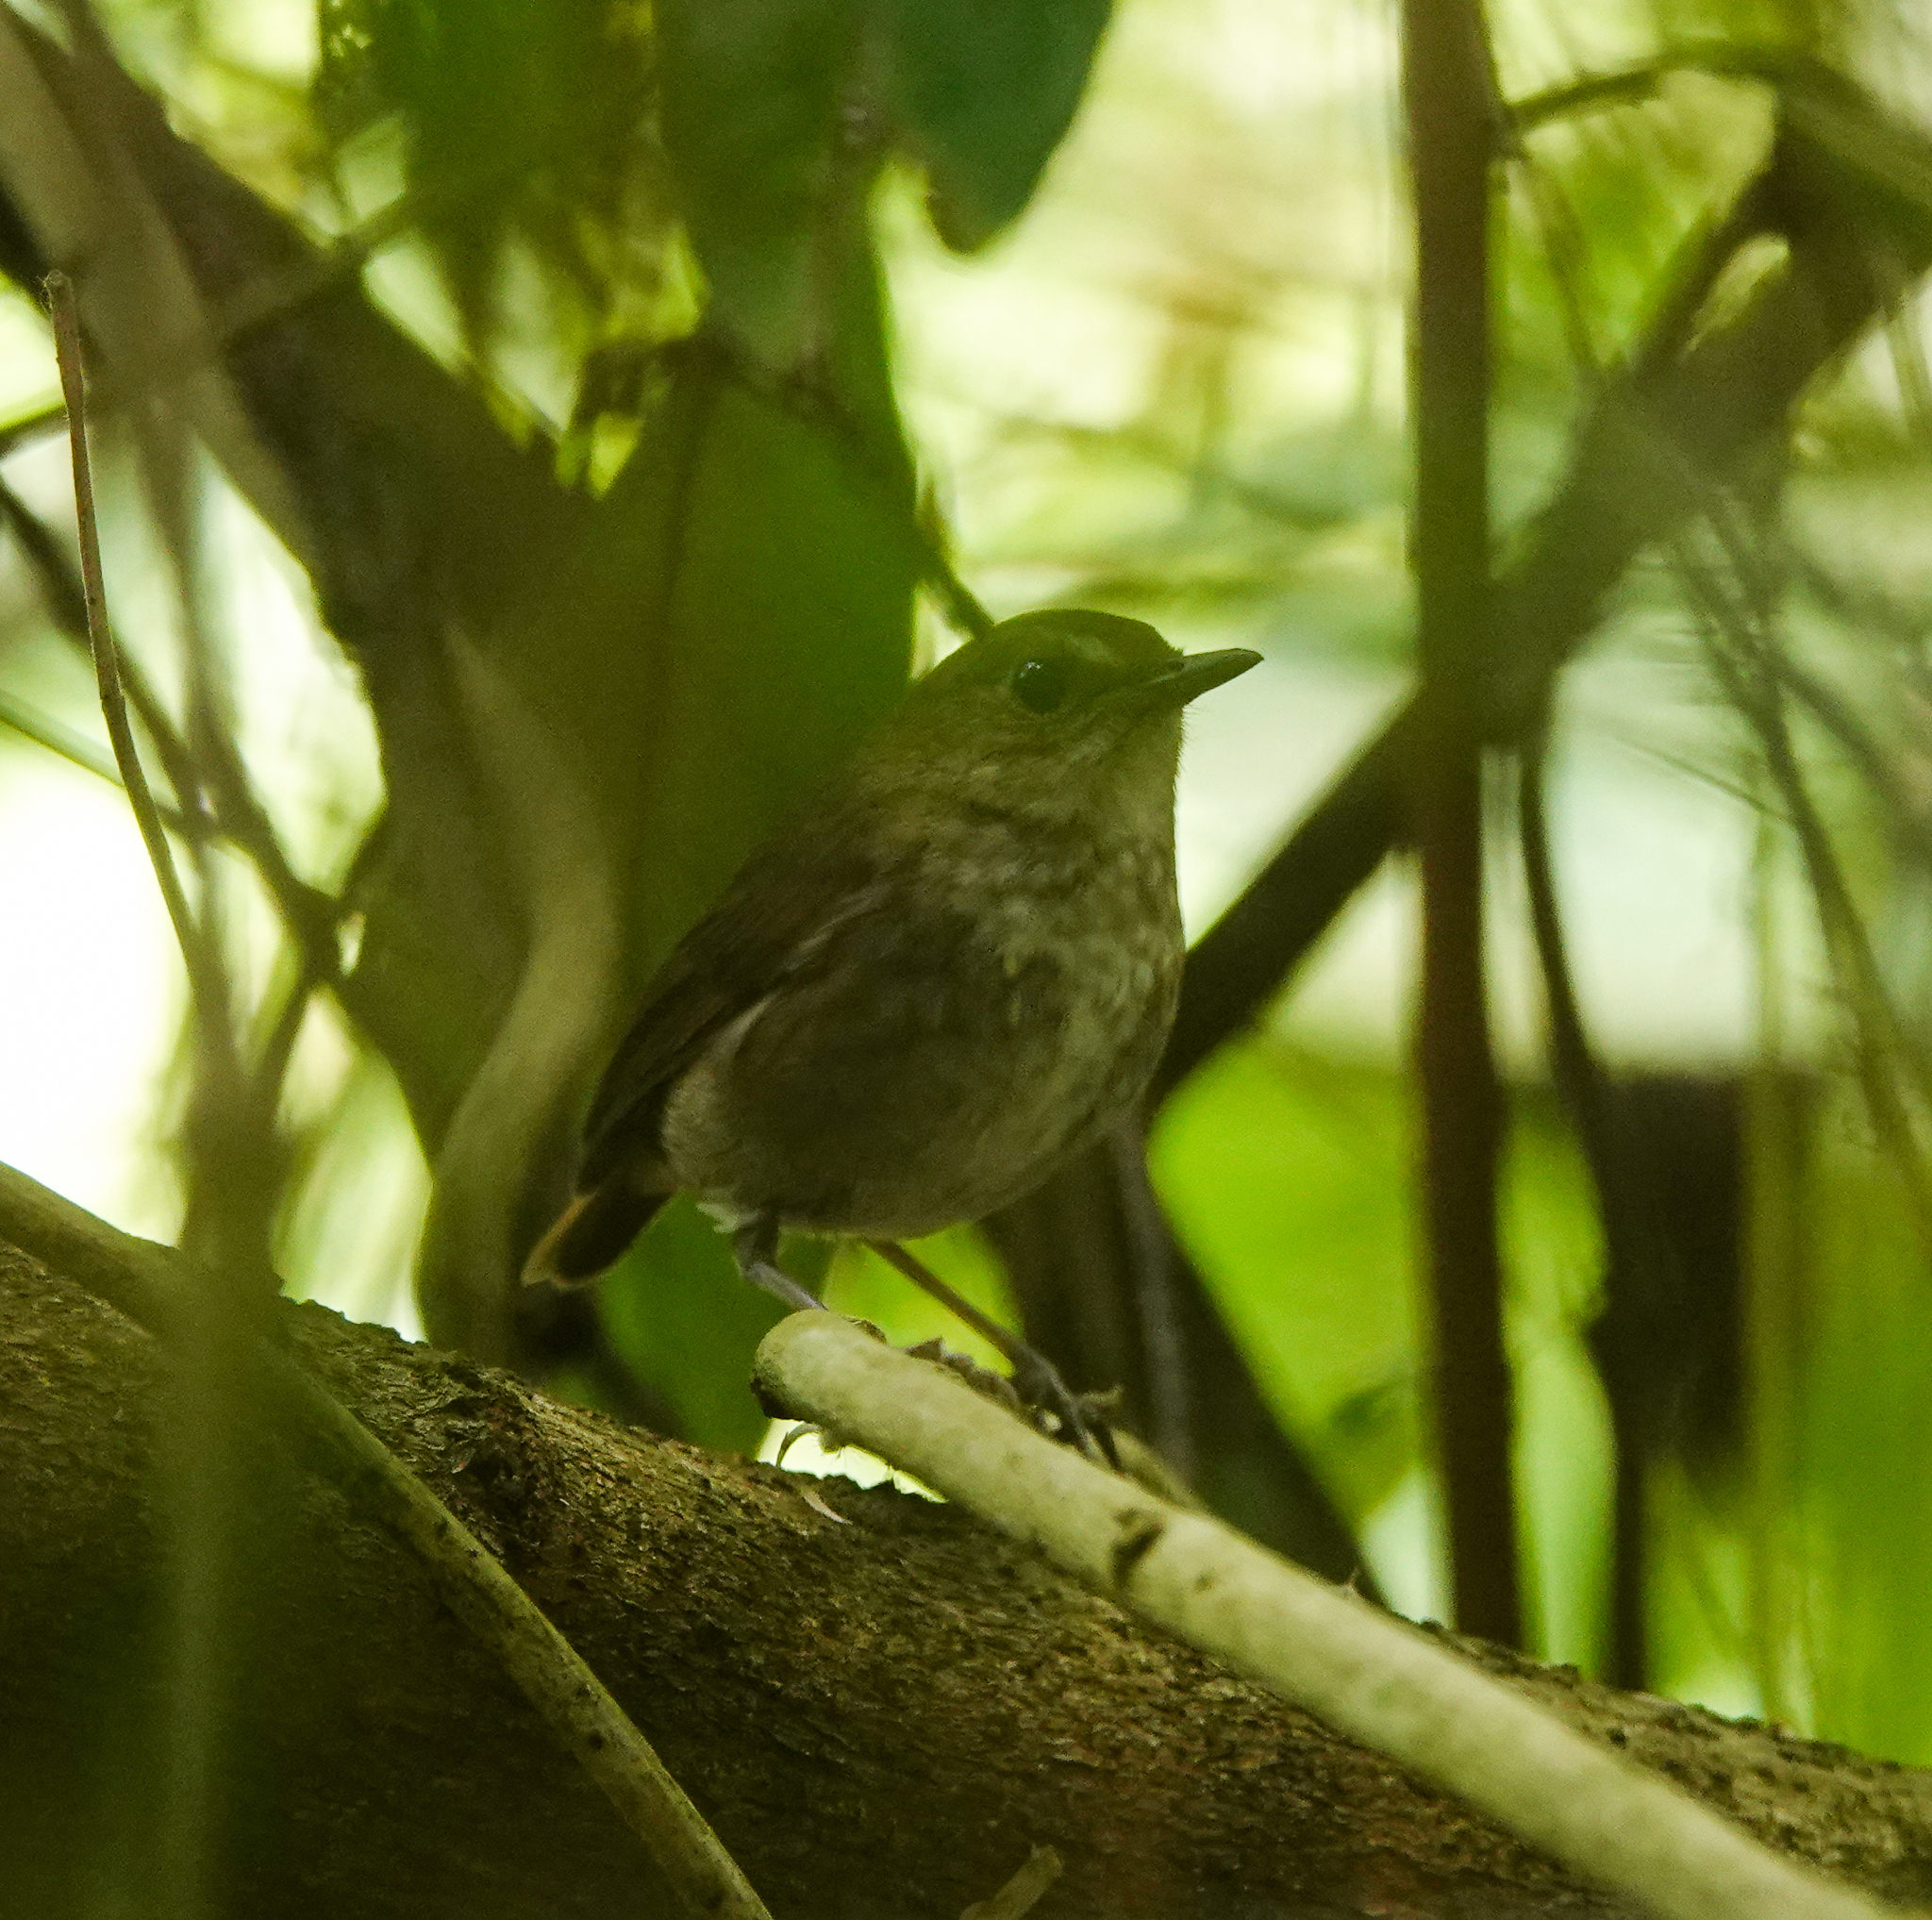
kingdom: Animalia
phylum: Chordata
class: Aves
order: Passeriformes
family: Muscicapidae
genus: Brachypteryx
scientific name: Brachypteryx leucophris
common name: Lesser shortwing
